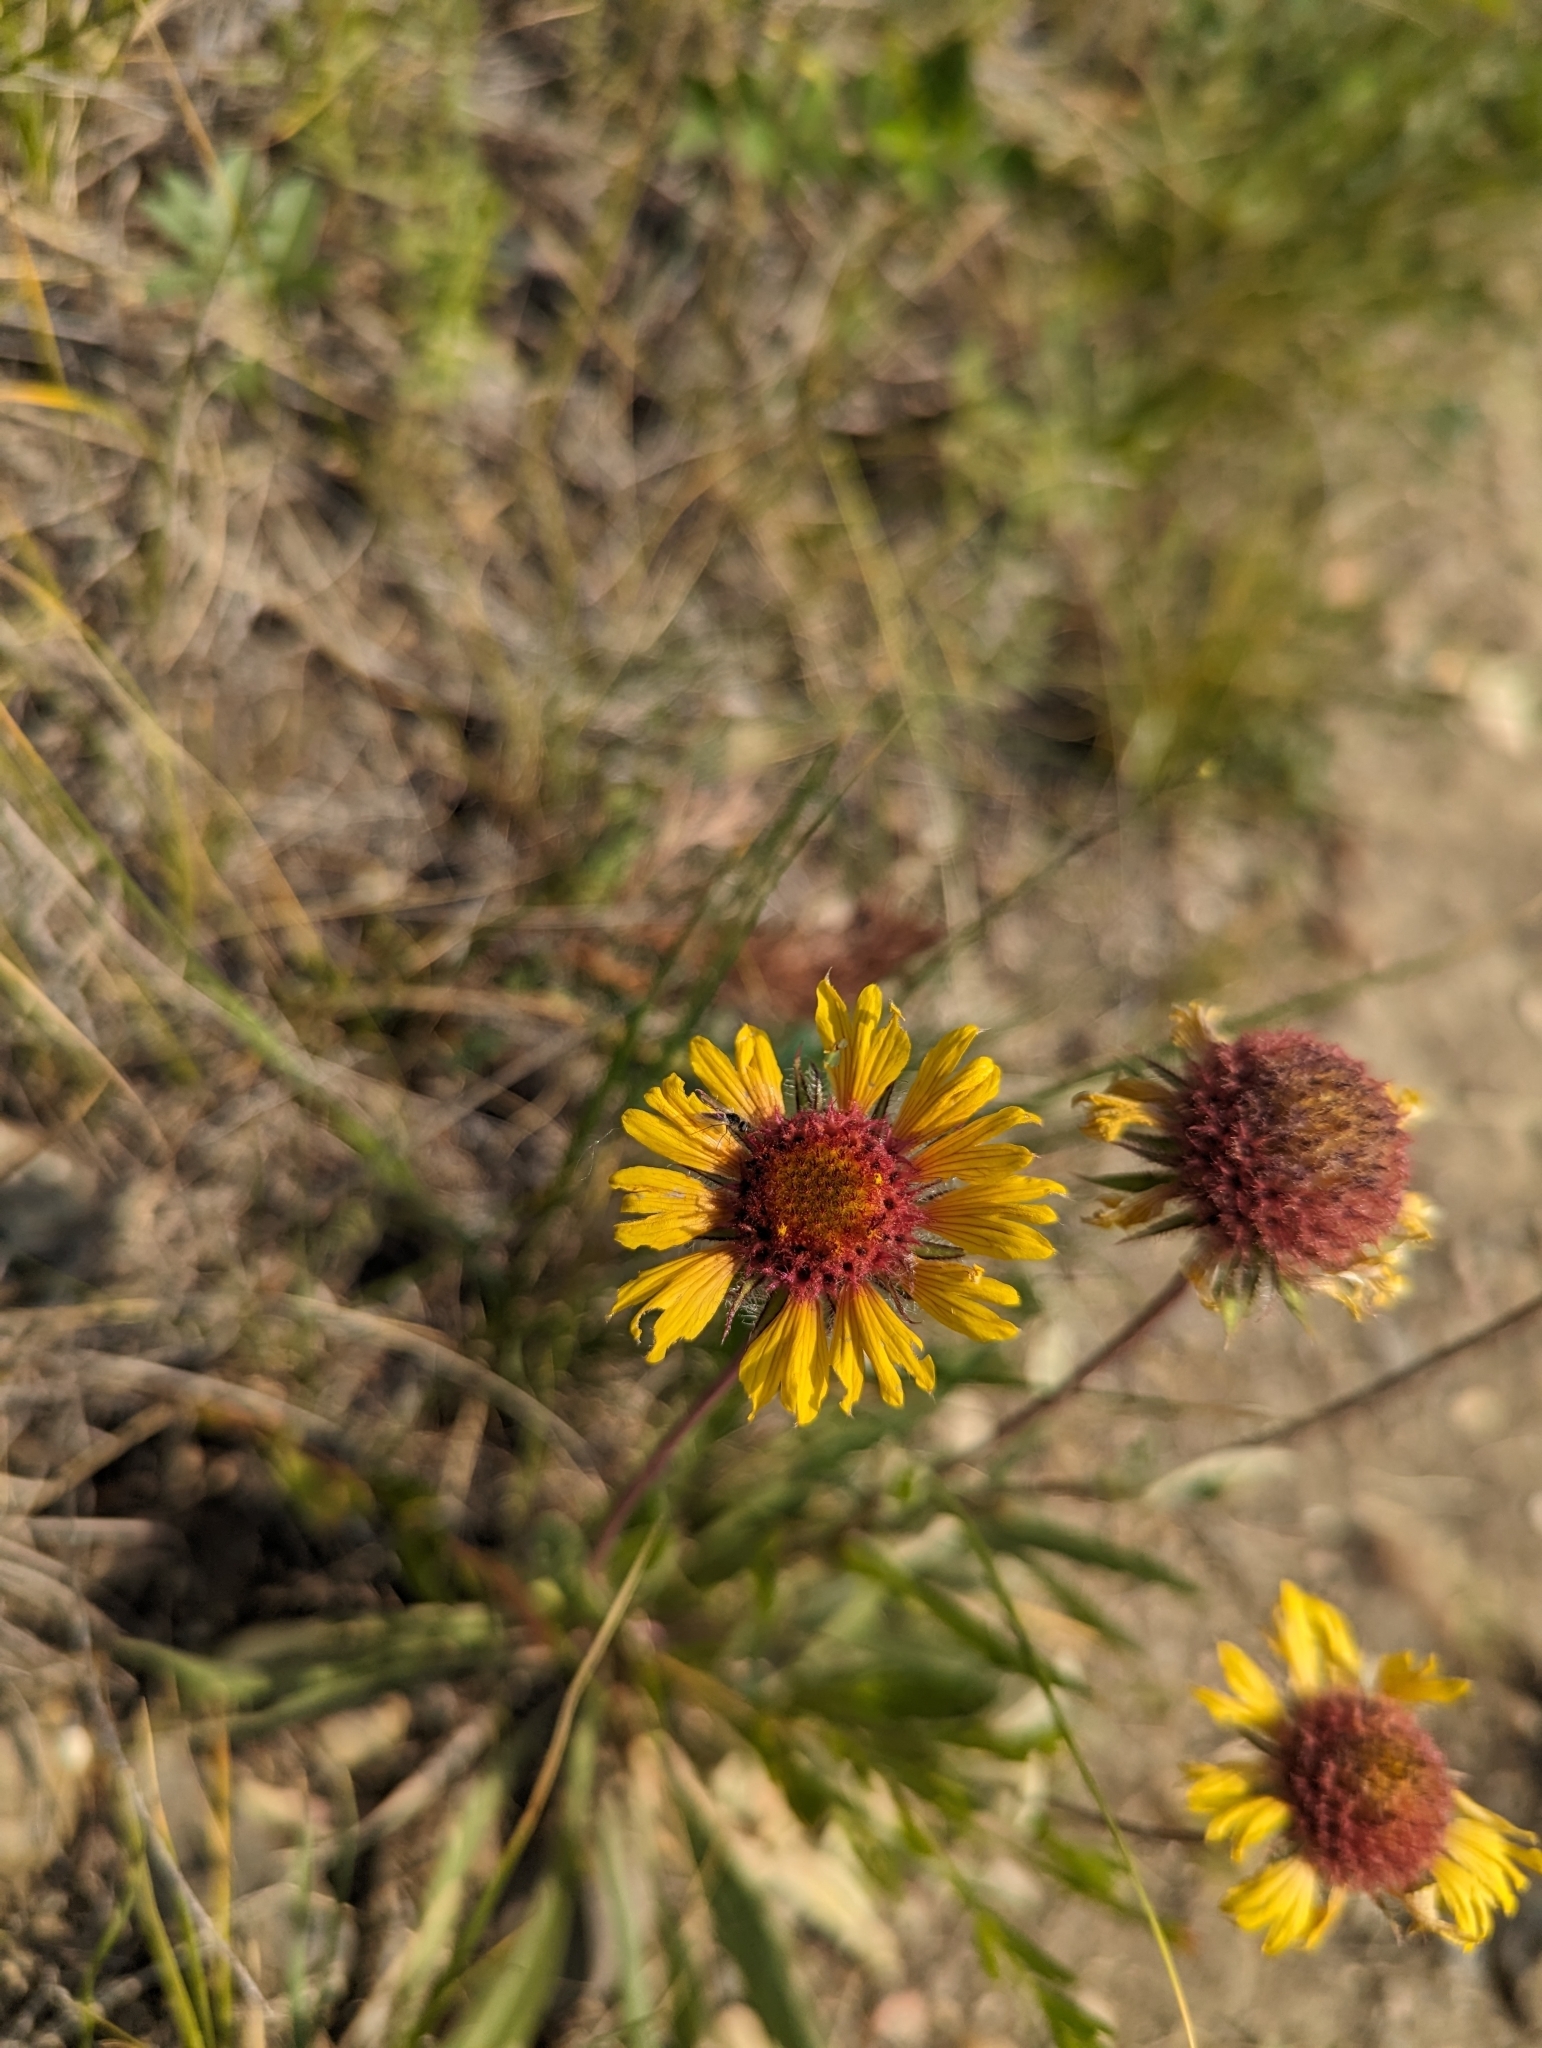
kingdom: Plantae
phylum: Tracheophyta
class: Magnoliopsida
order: Asterales
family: Asteraceae
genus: Gaillardia
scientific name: Gaillardia aristata
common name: Blanket-flower
